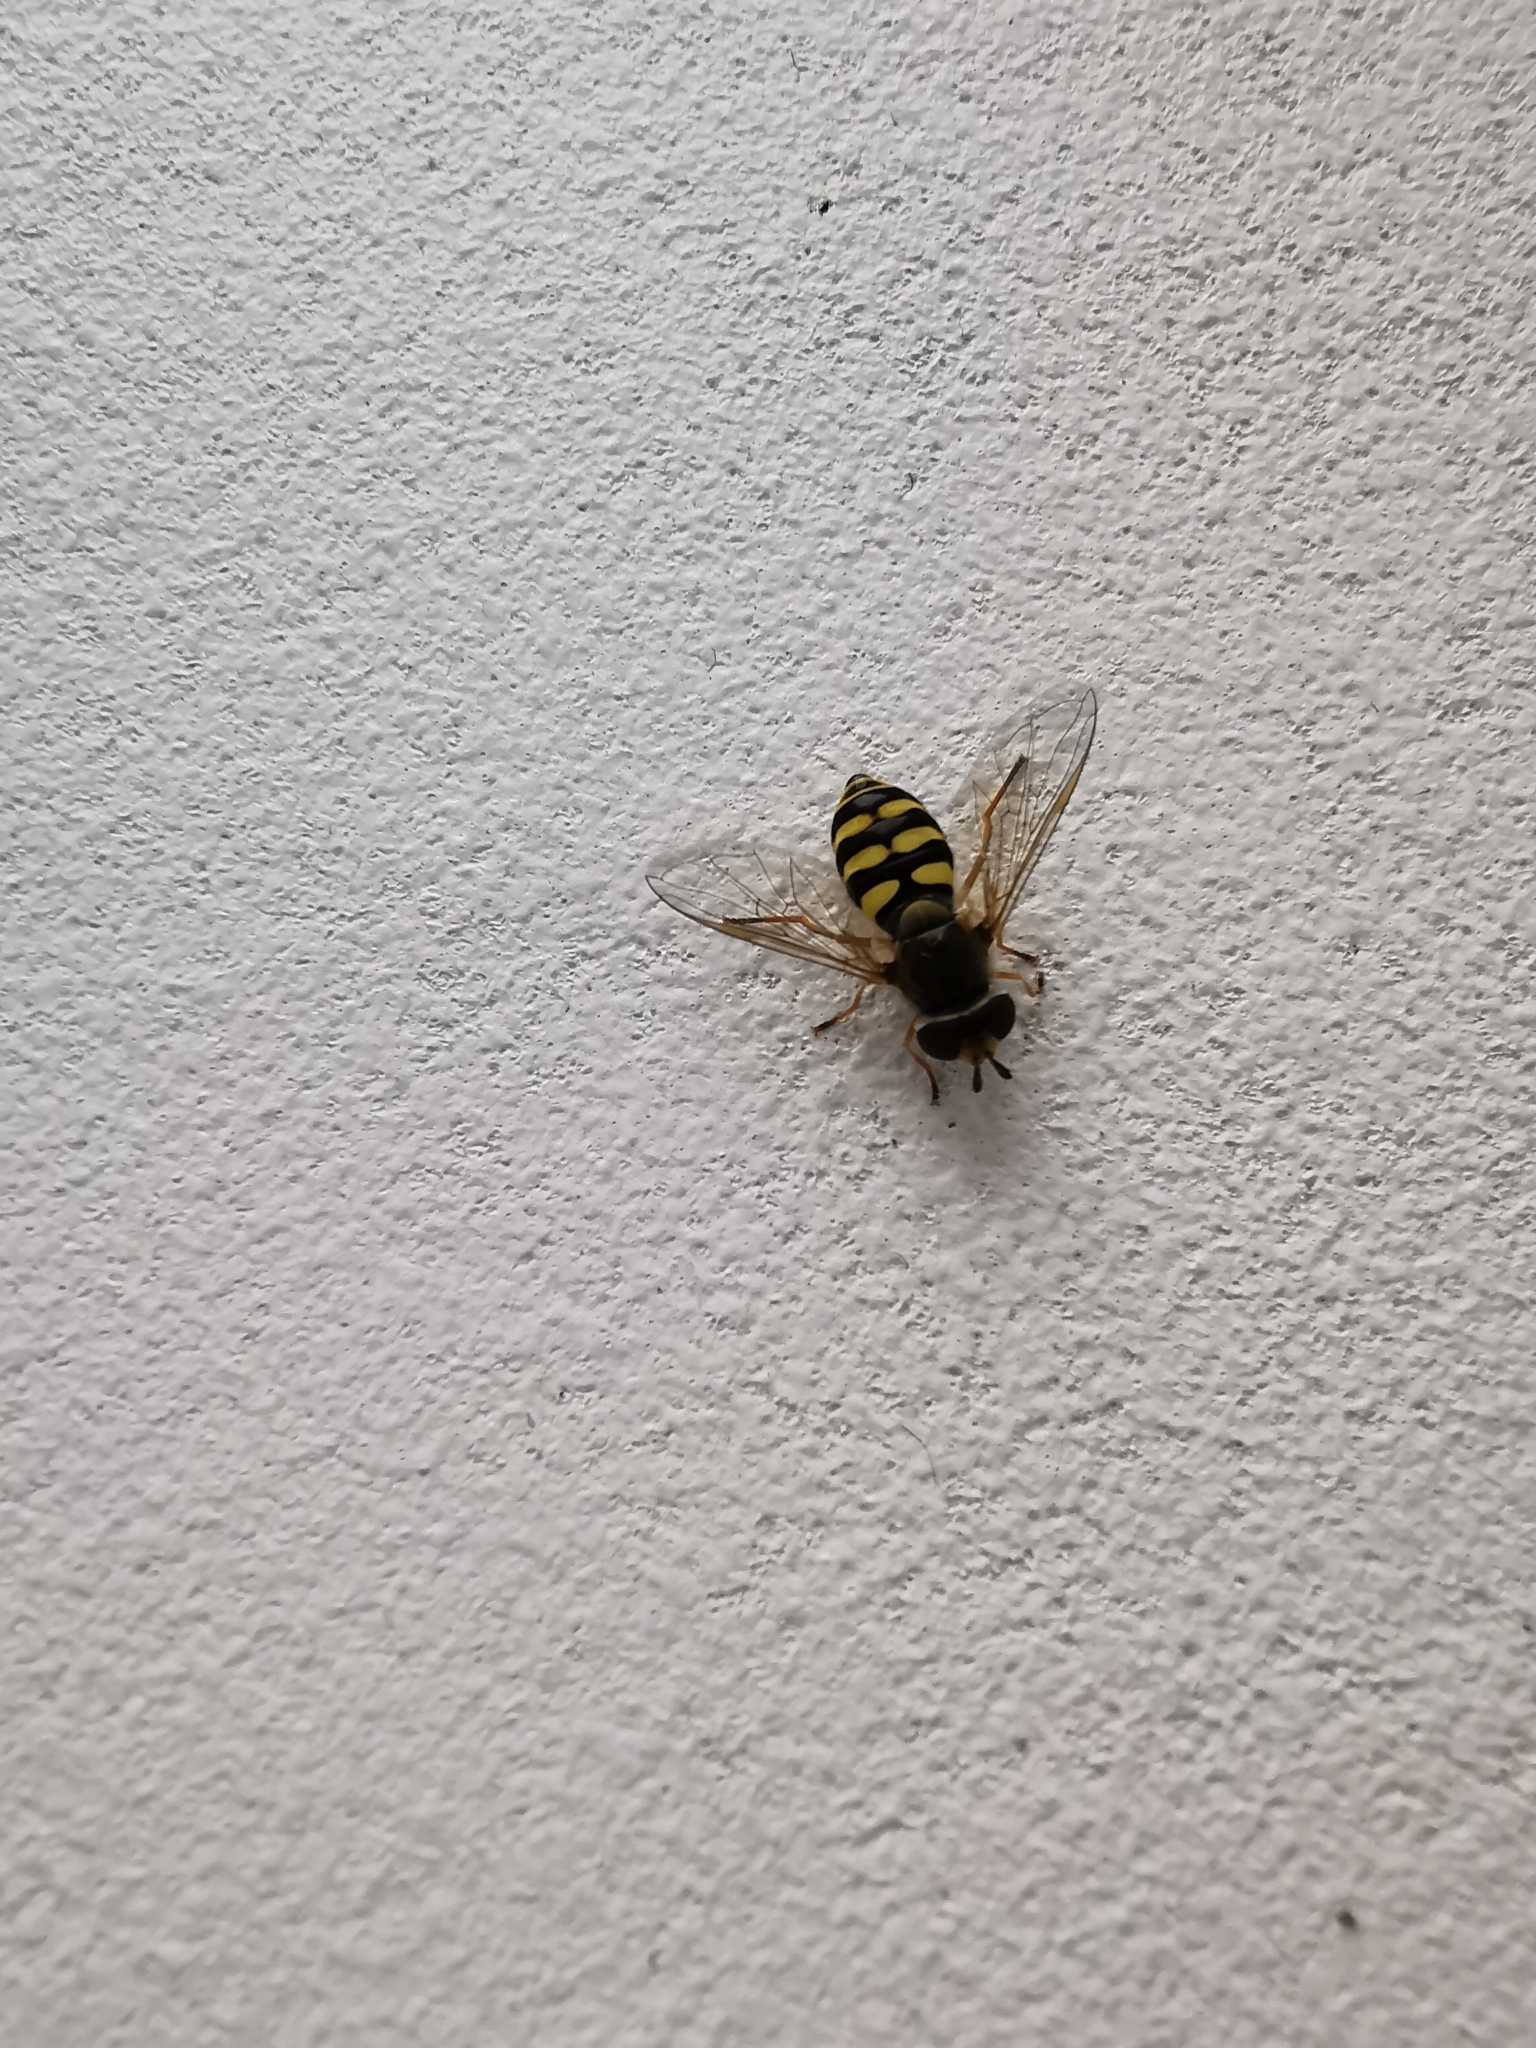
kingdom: Animalia
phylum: Arthropoda
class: Insecta
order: Diptera
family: Syrphidae
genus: Eupeodes
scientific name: Eupeodes corollae
